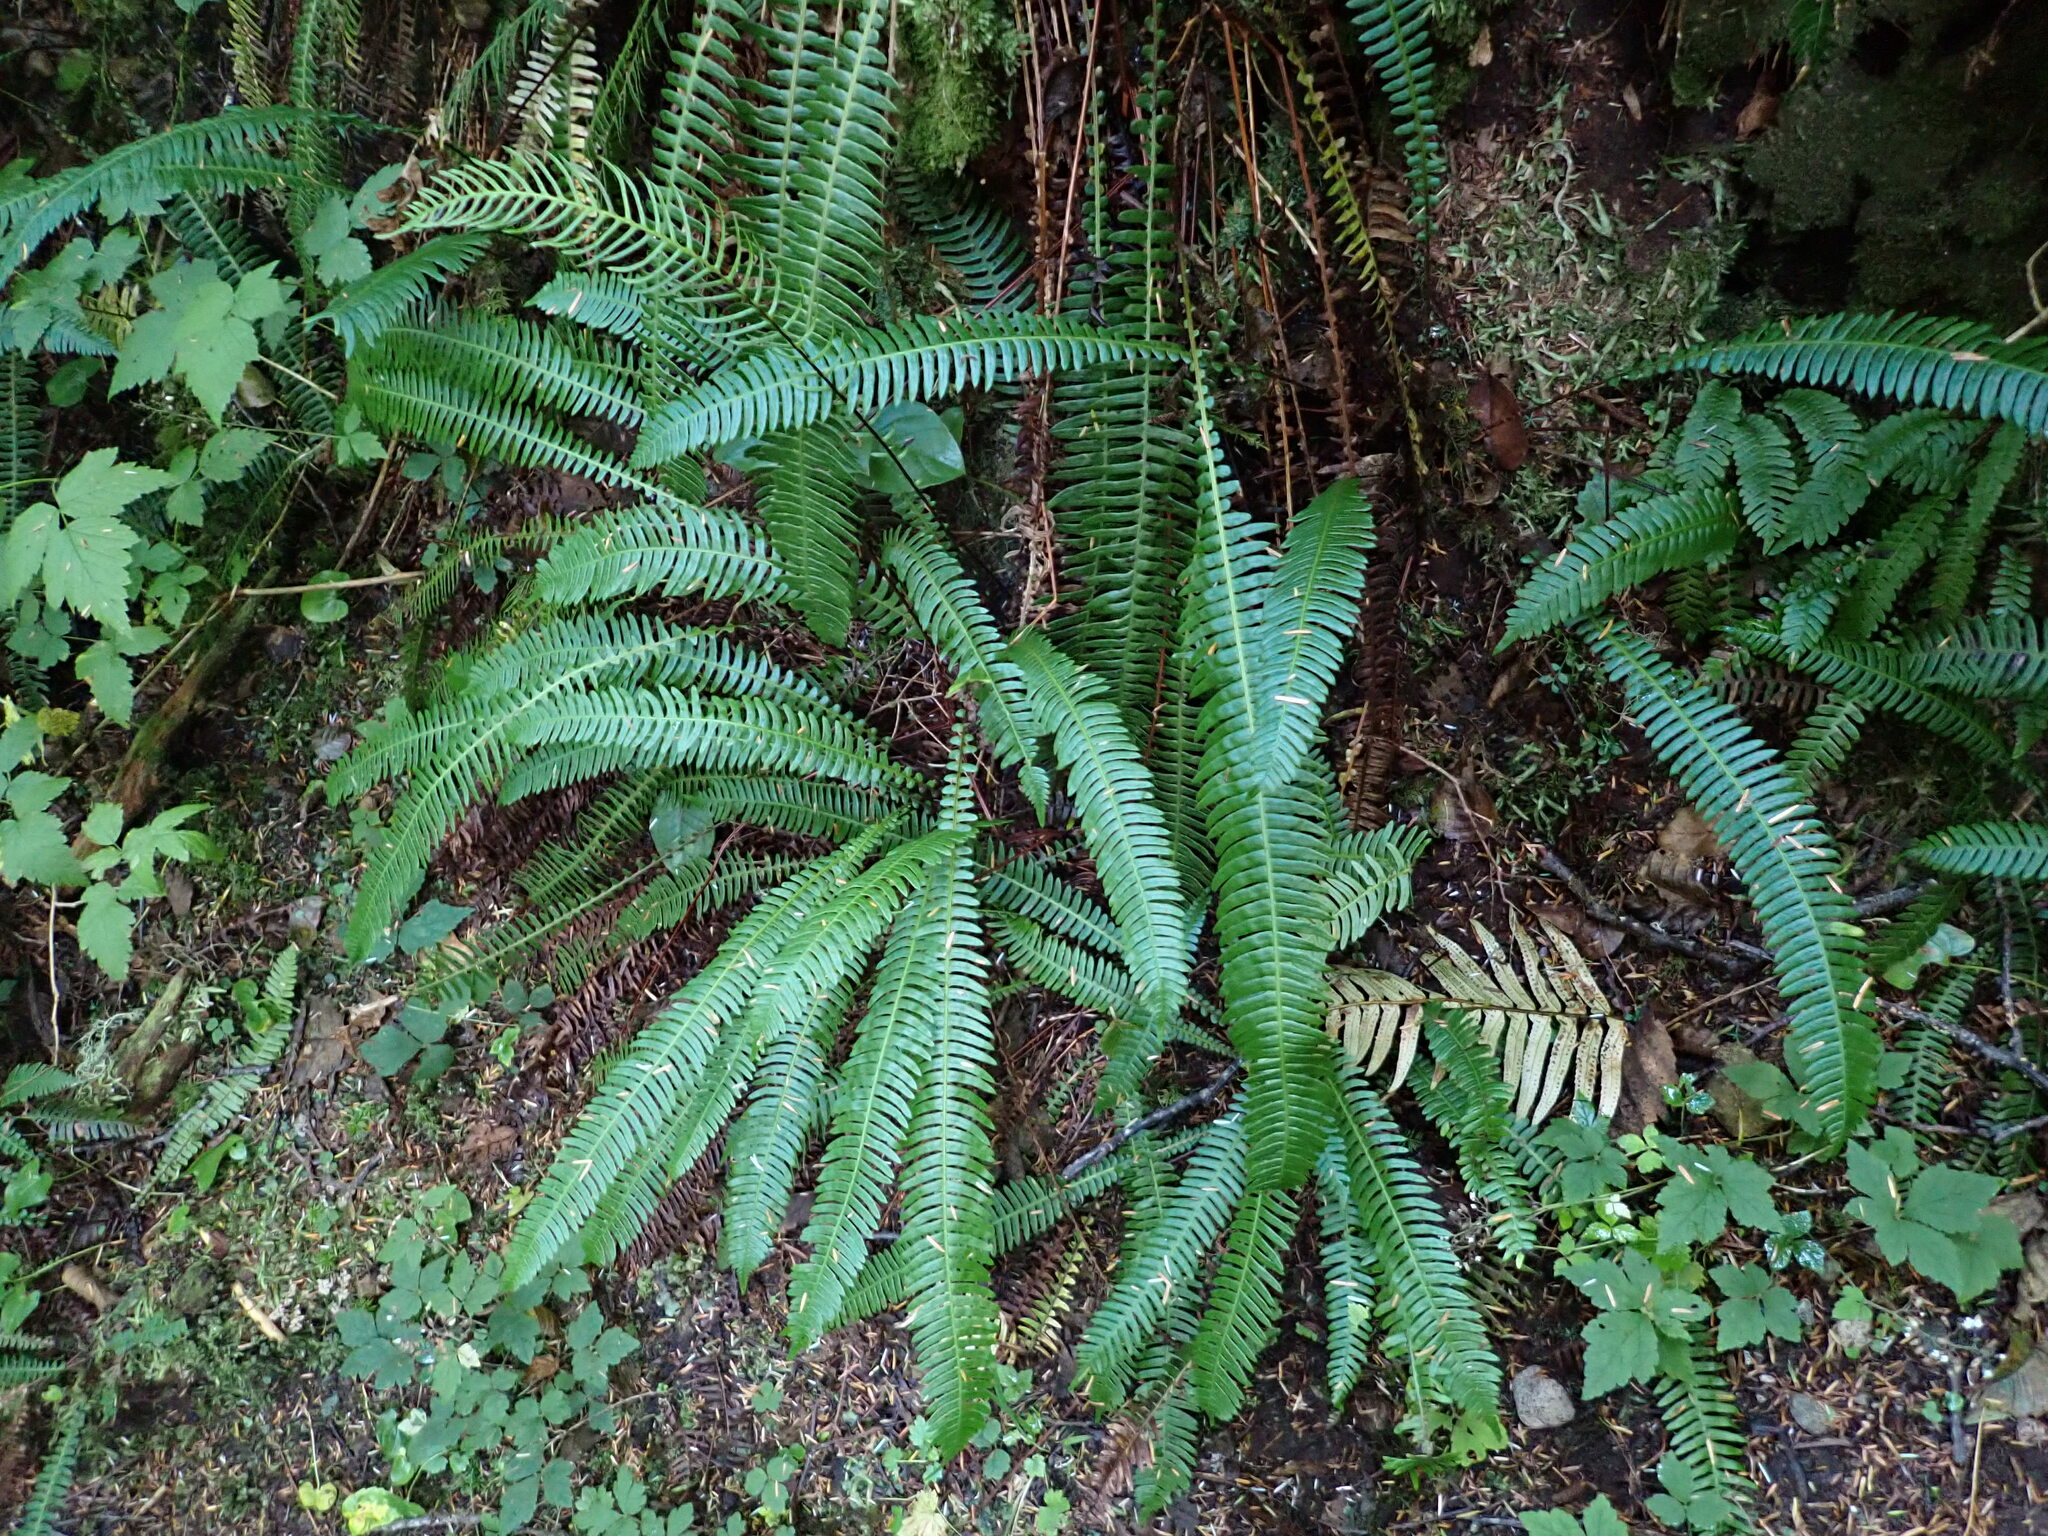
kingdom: Plantae
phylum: Tracheophyta
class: Polypodiopsida
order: Polypodiales
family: Blechnaceae
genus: Struthiopteris
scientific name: Struthiopteris spicant
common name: Deer fern
